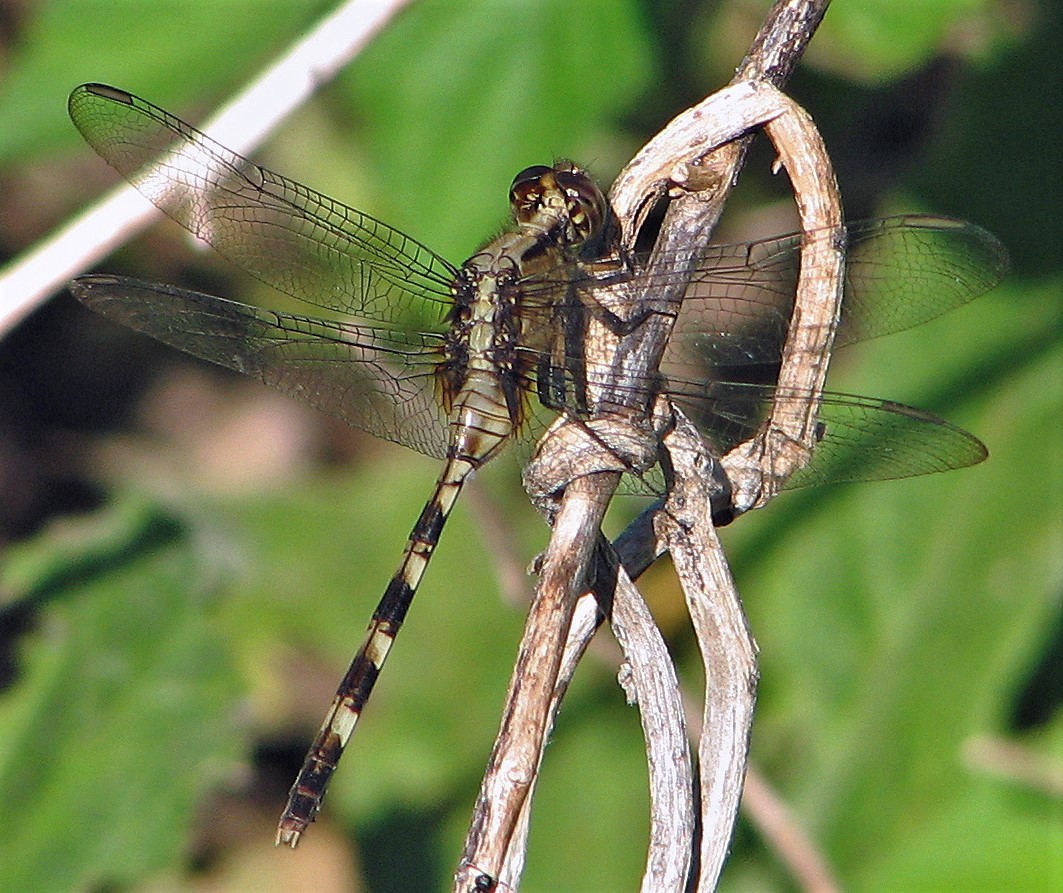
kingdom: Animalia
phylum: Arthropoda
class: Insecta
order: Odonata
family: Libellulidae
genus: Erythemis
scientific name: Erythemis plebeja
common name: Pin-tailed pondhawk
